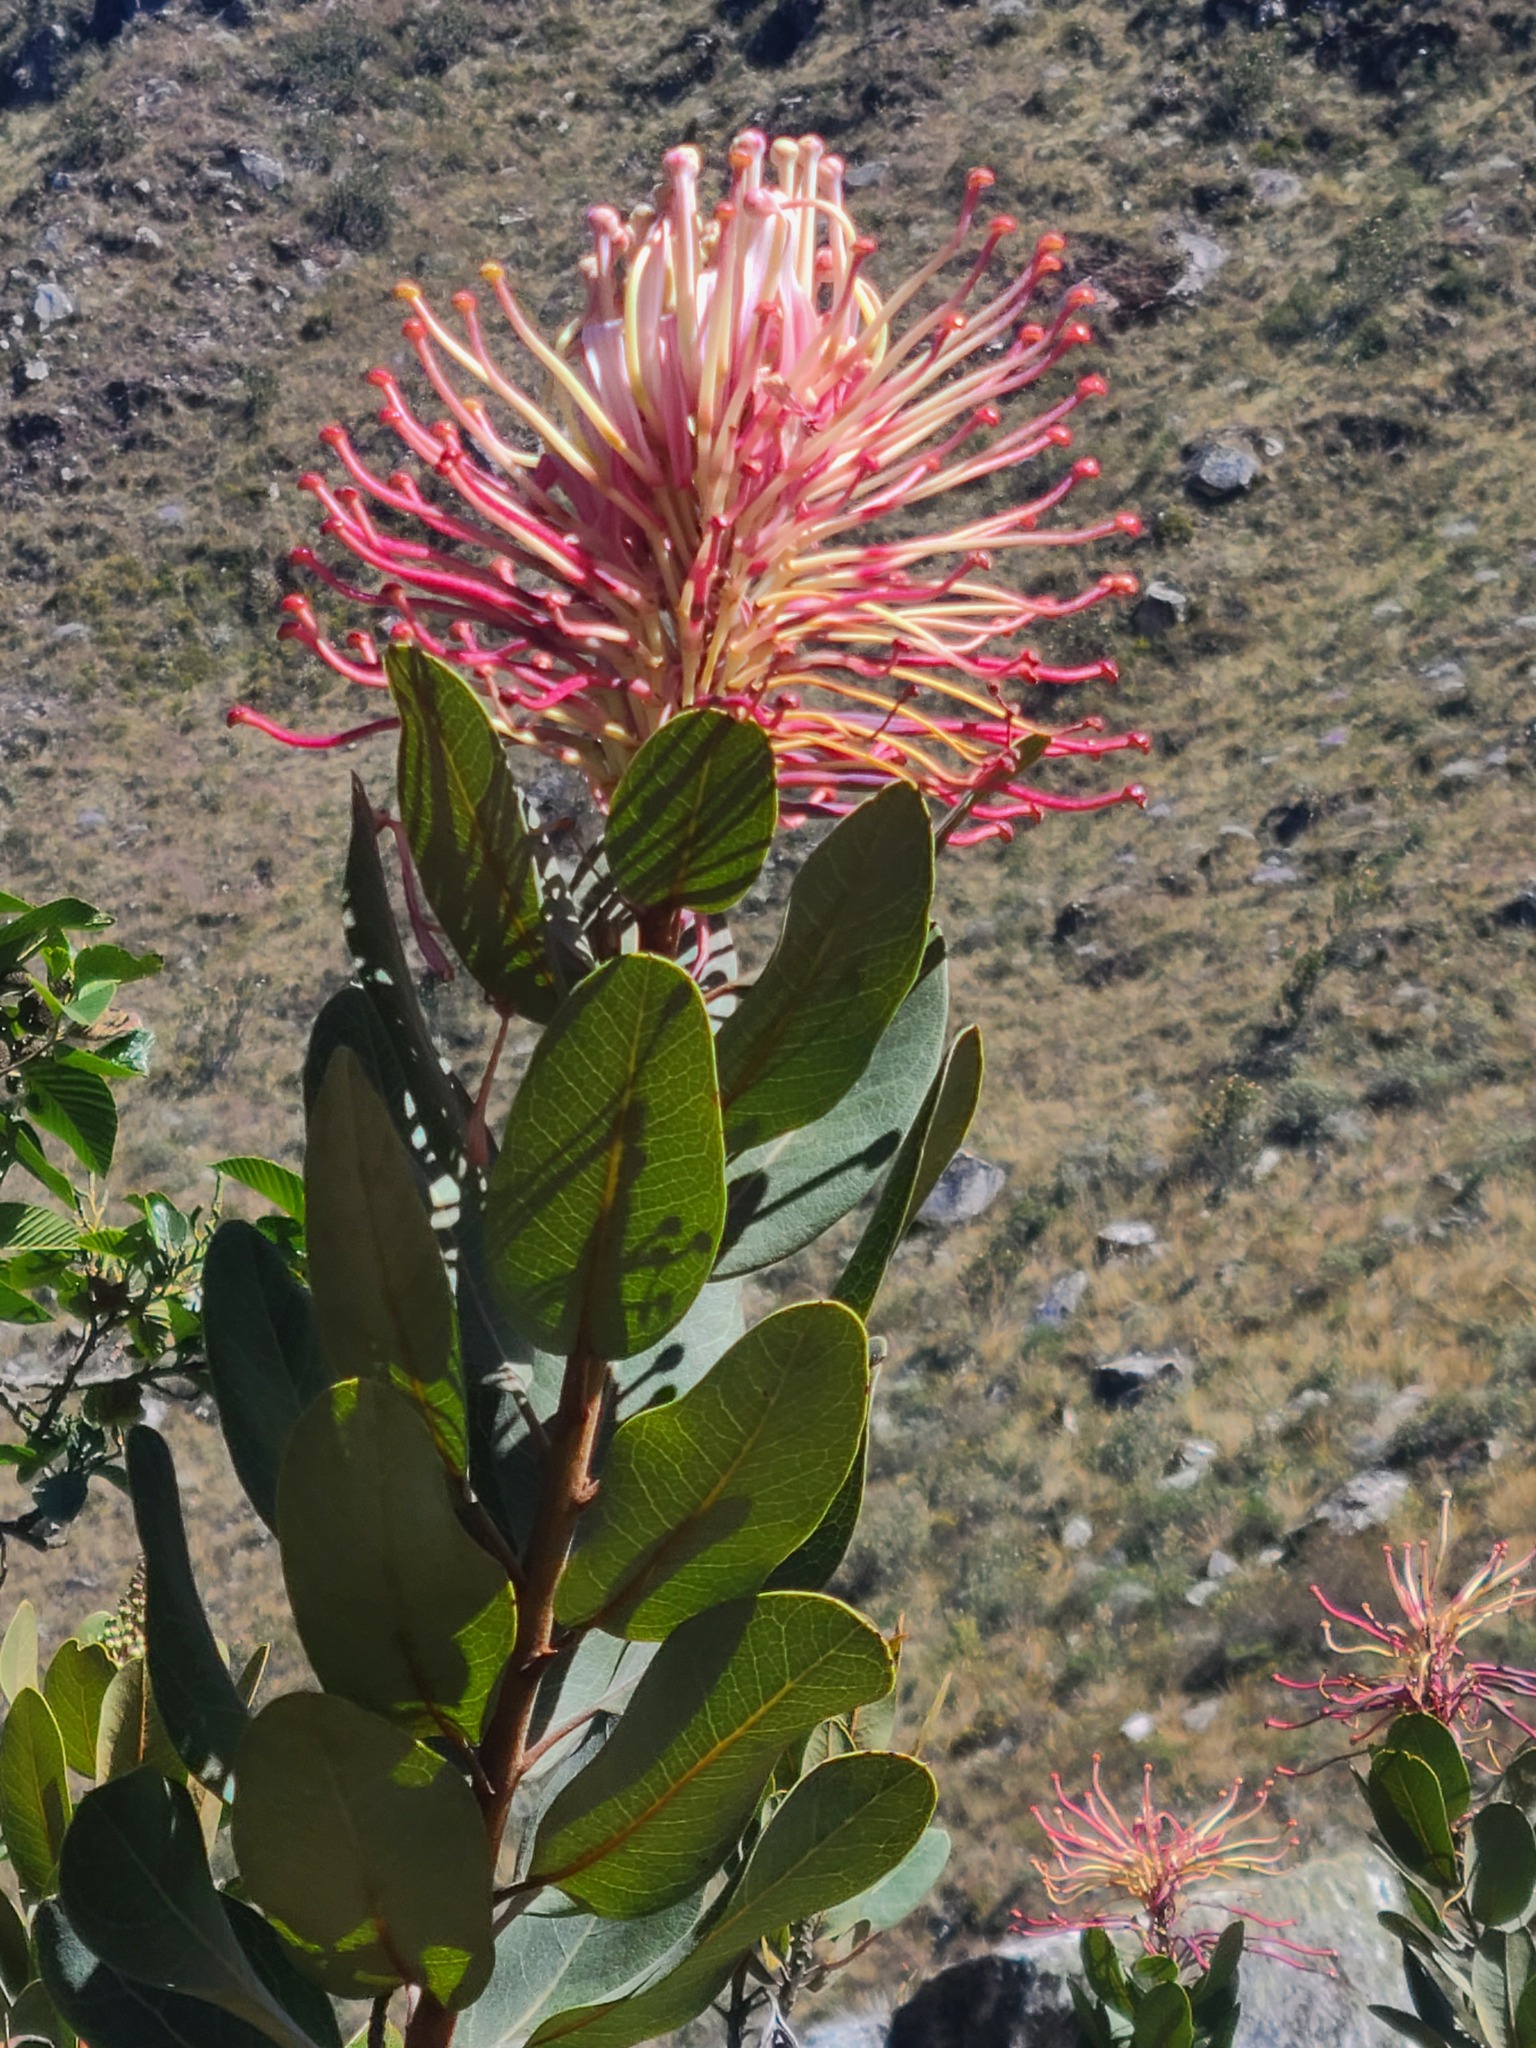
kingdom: Plantae
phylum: Tracheophyta
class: Magnoliopsida
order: Proteales
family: Proteaceae
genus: Oreocallis
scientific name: Oreocallis grandiflora
